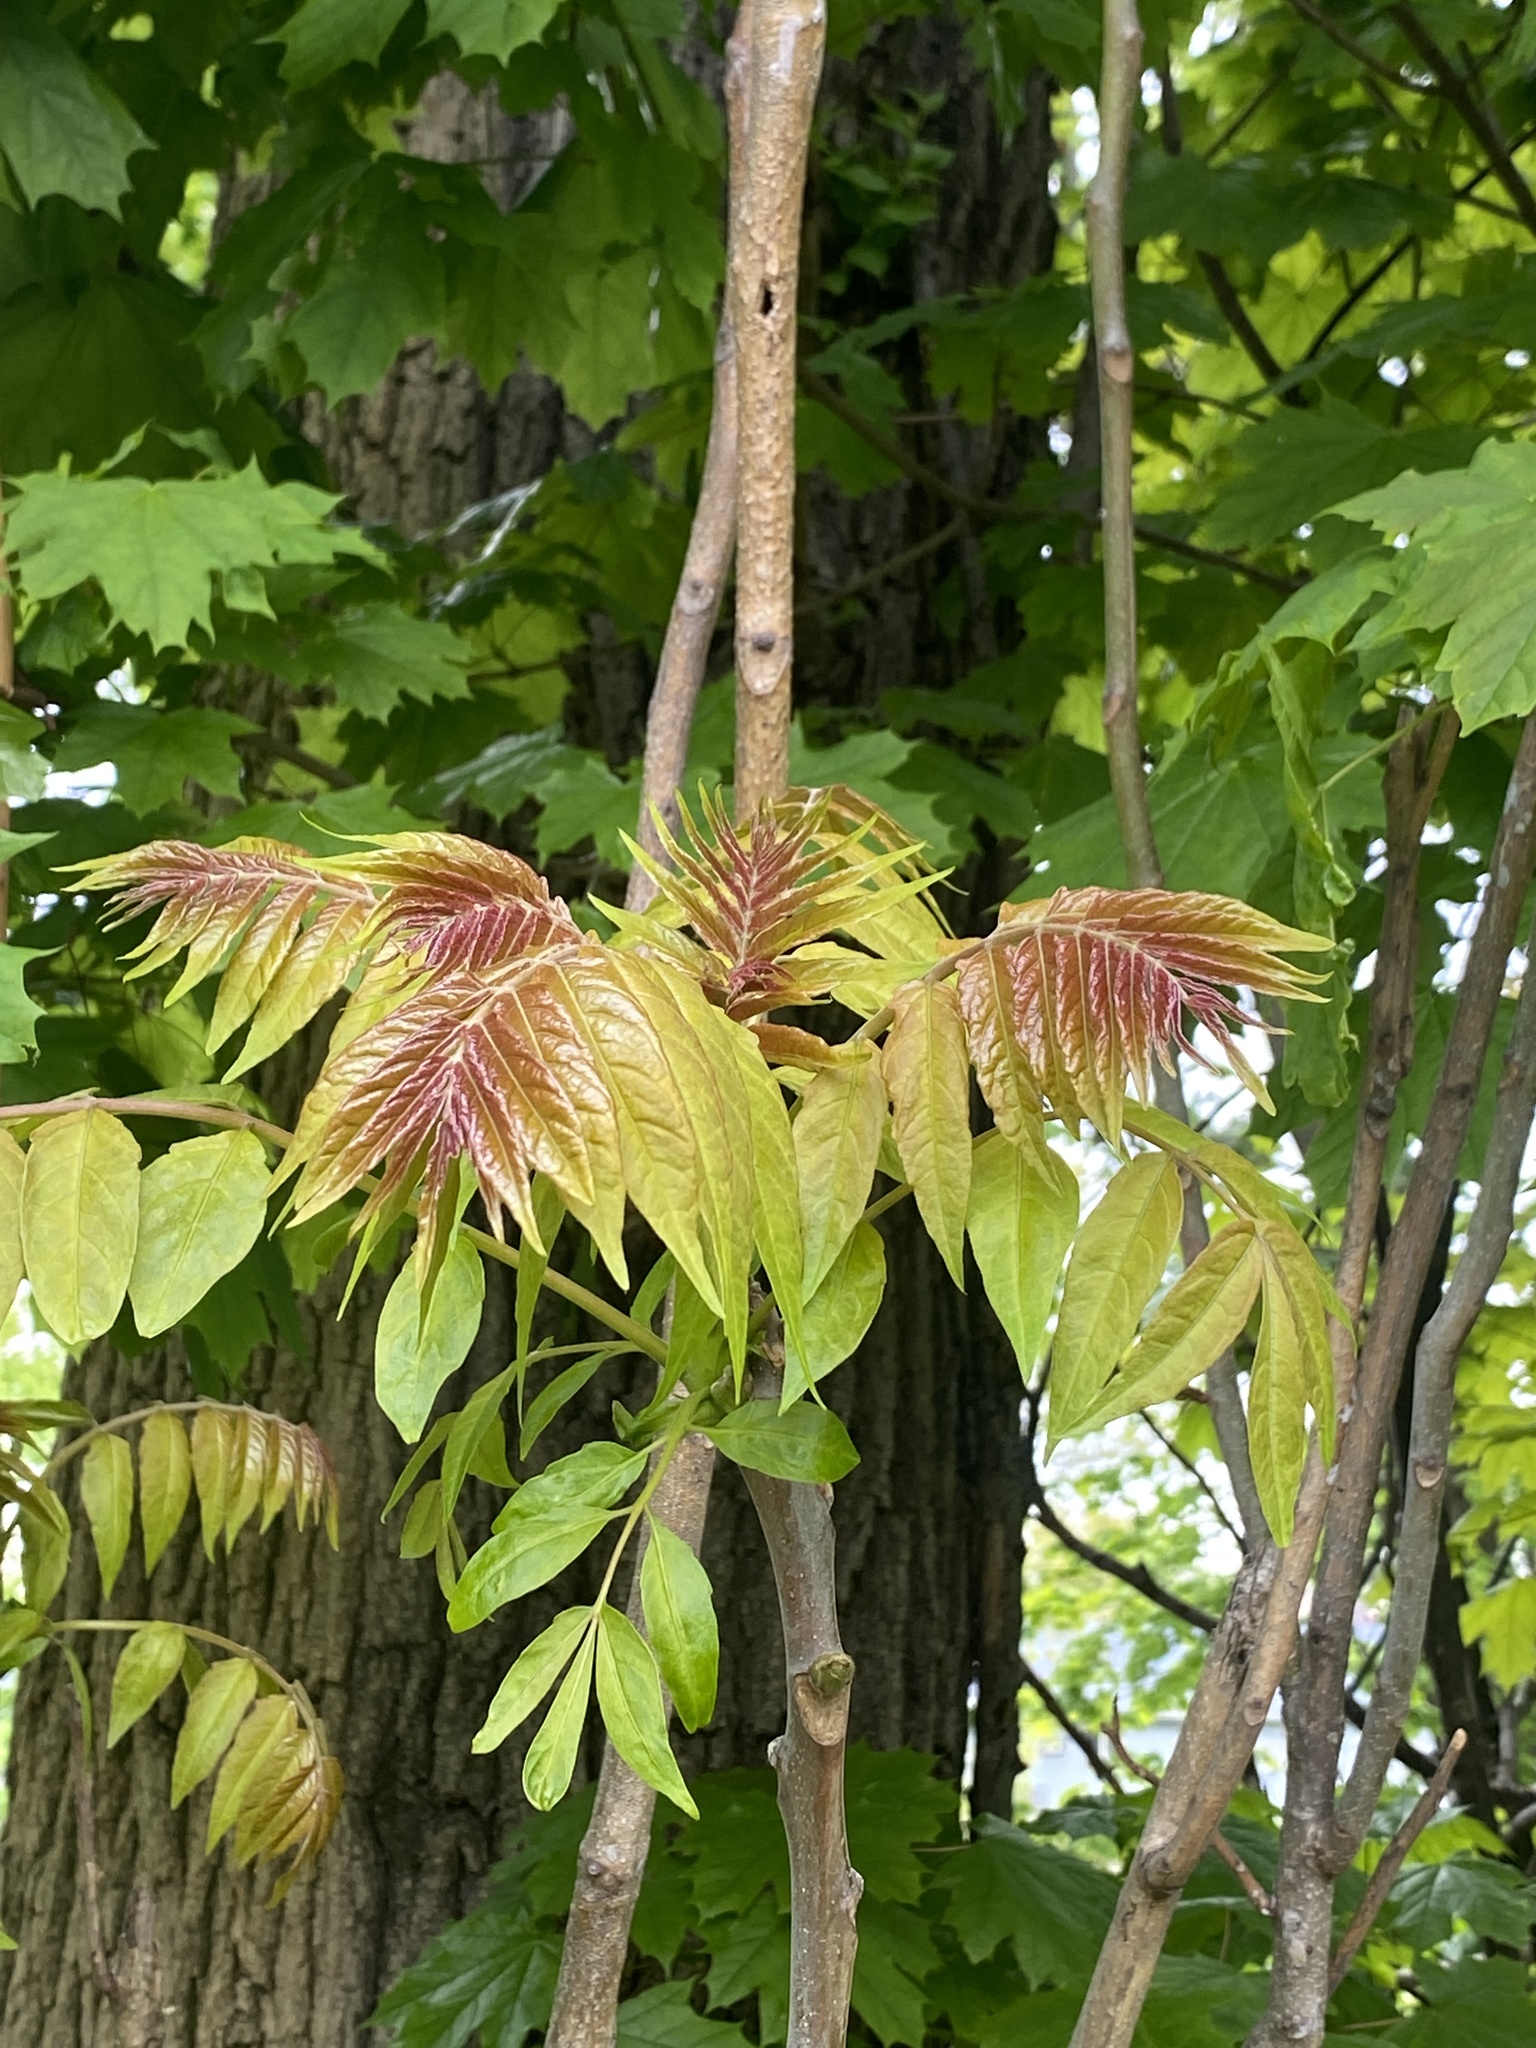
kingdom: Plantae
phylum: Tracheophyta
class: Magnoliopsida
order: Sapindales
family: Simaroubaceae
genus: Ailanthus
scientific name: Ailanthus altissima
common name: Tree-of-heaven
